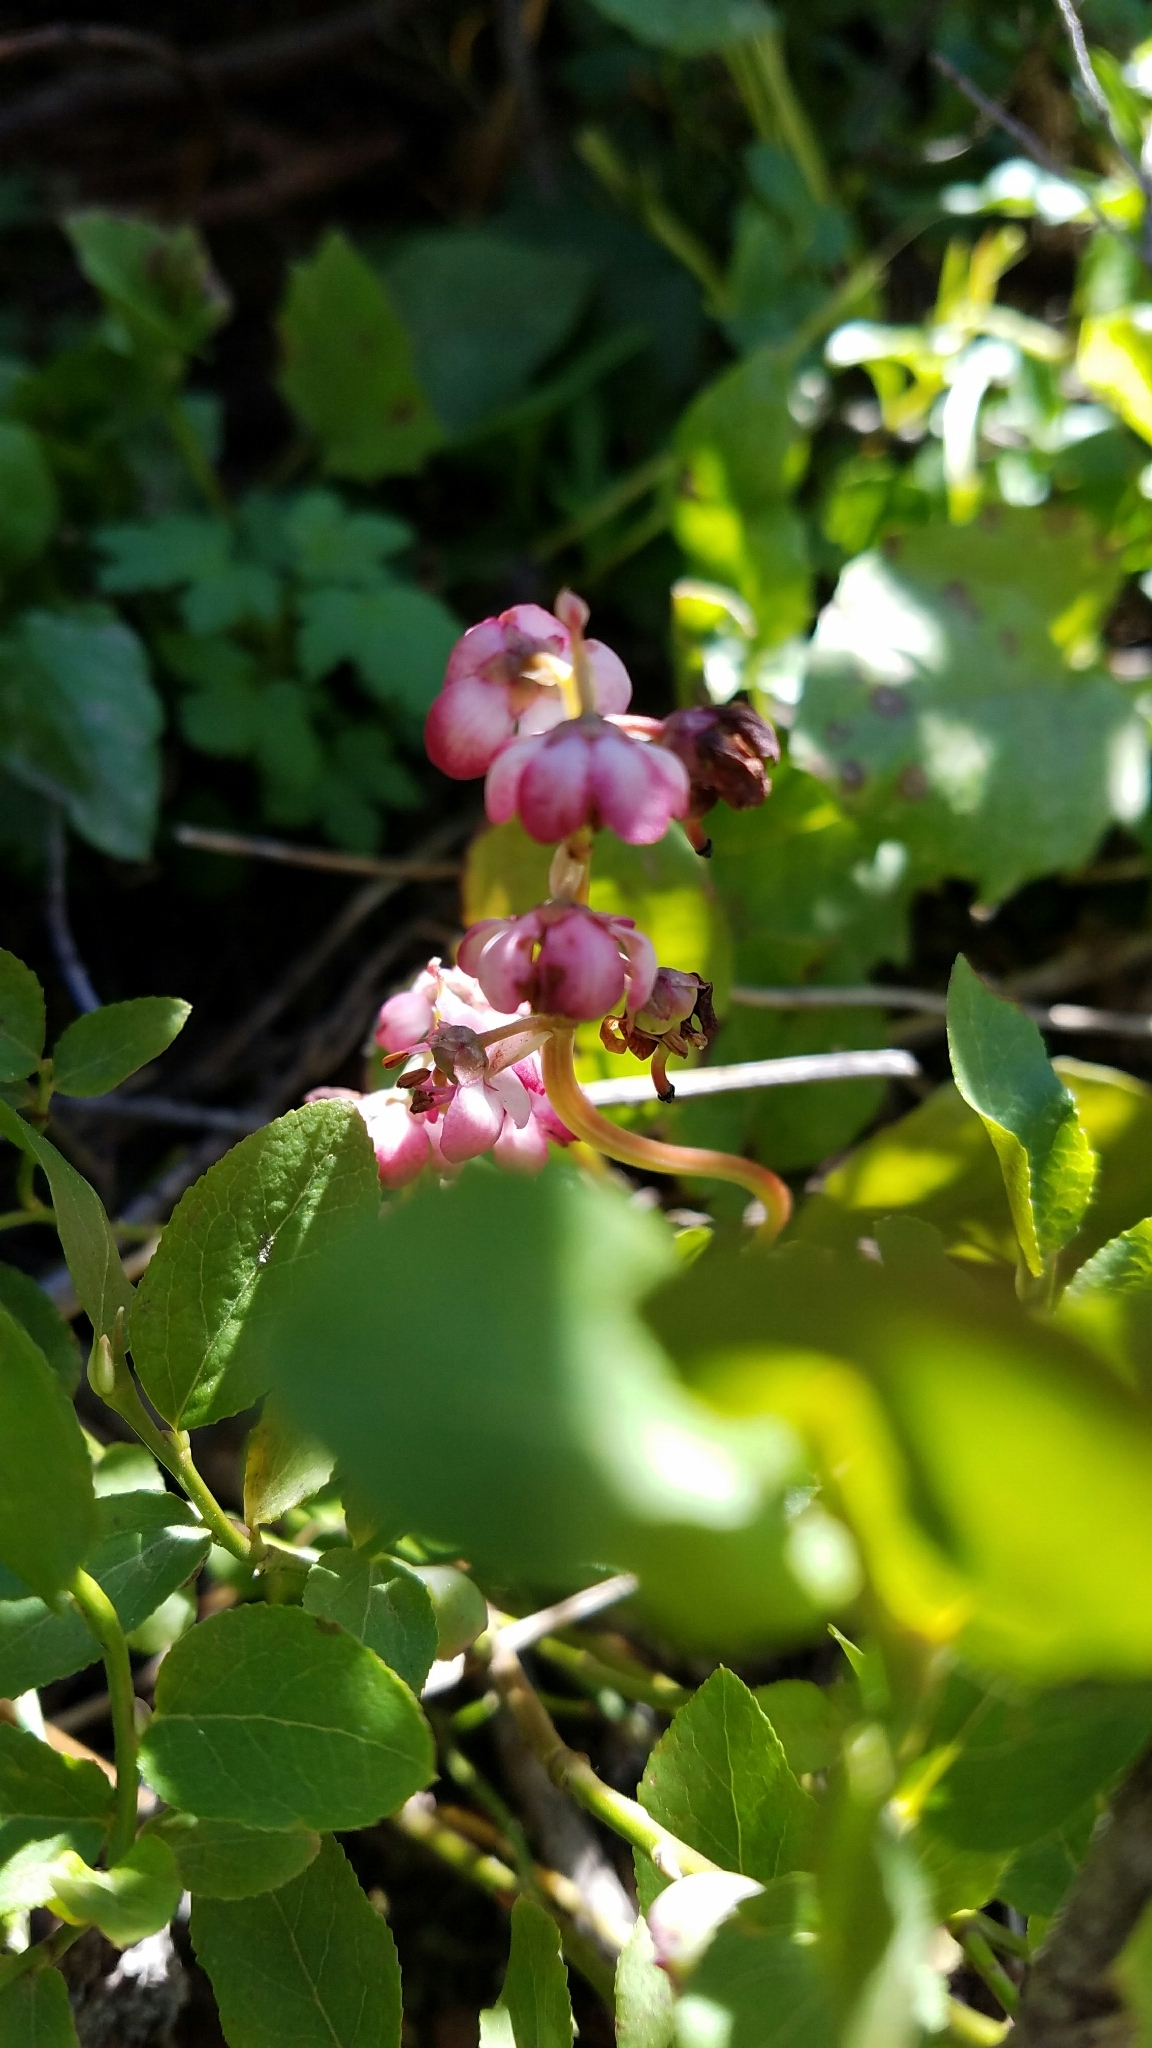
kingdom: Plantae
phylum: Tracheophyta
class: Magnoliopsida
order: Ericales
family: Ericaceae
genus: Pyrola
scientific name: Pyrola asarifolia
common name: Bog wintergreen
